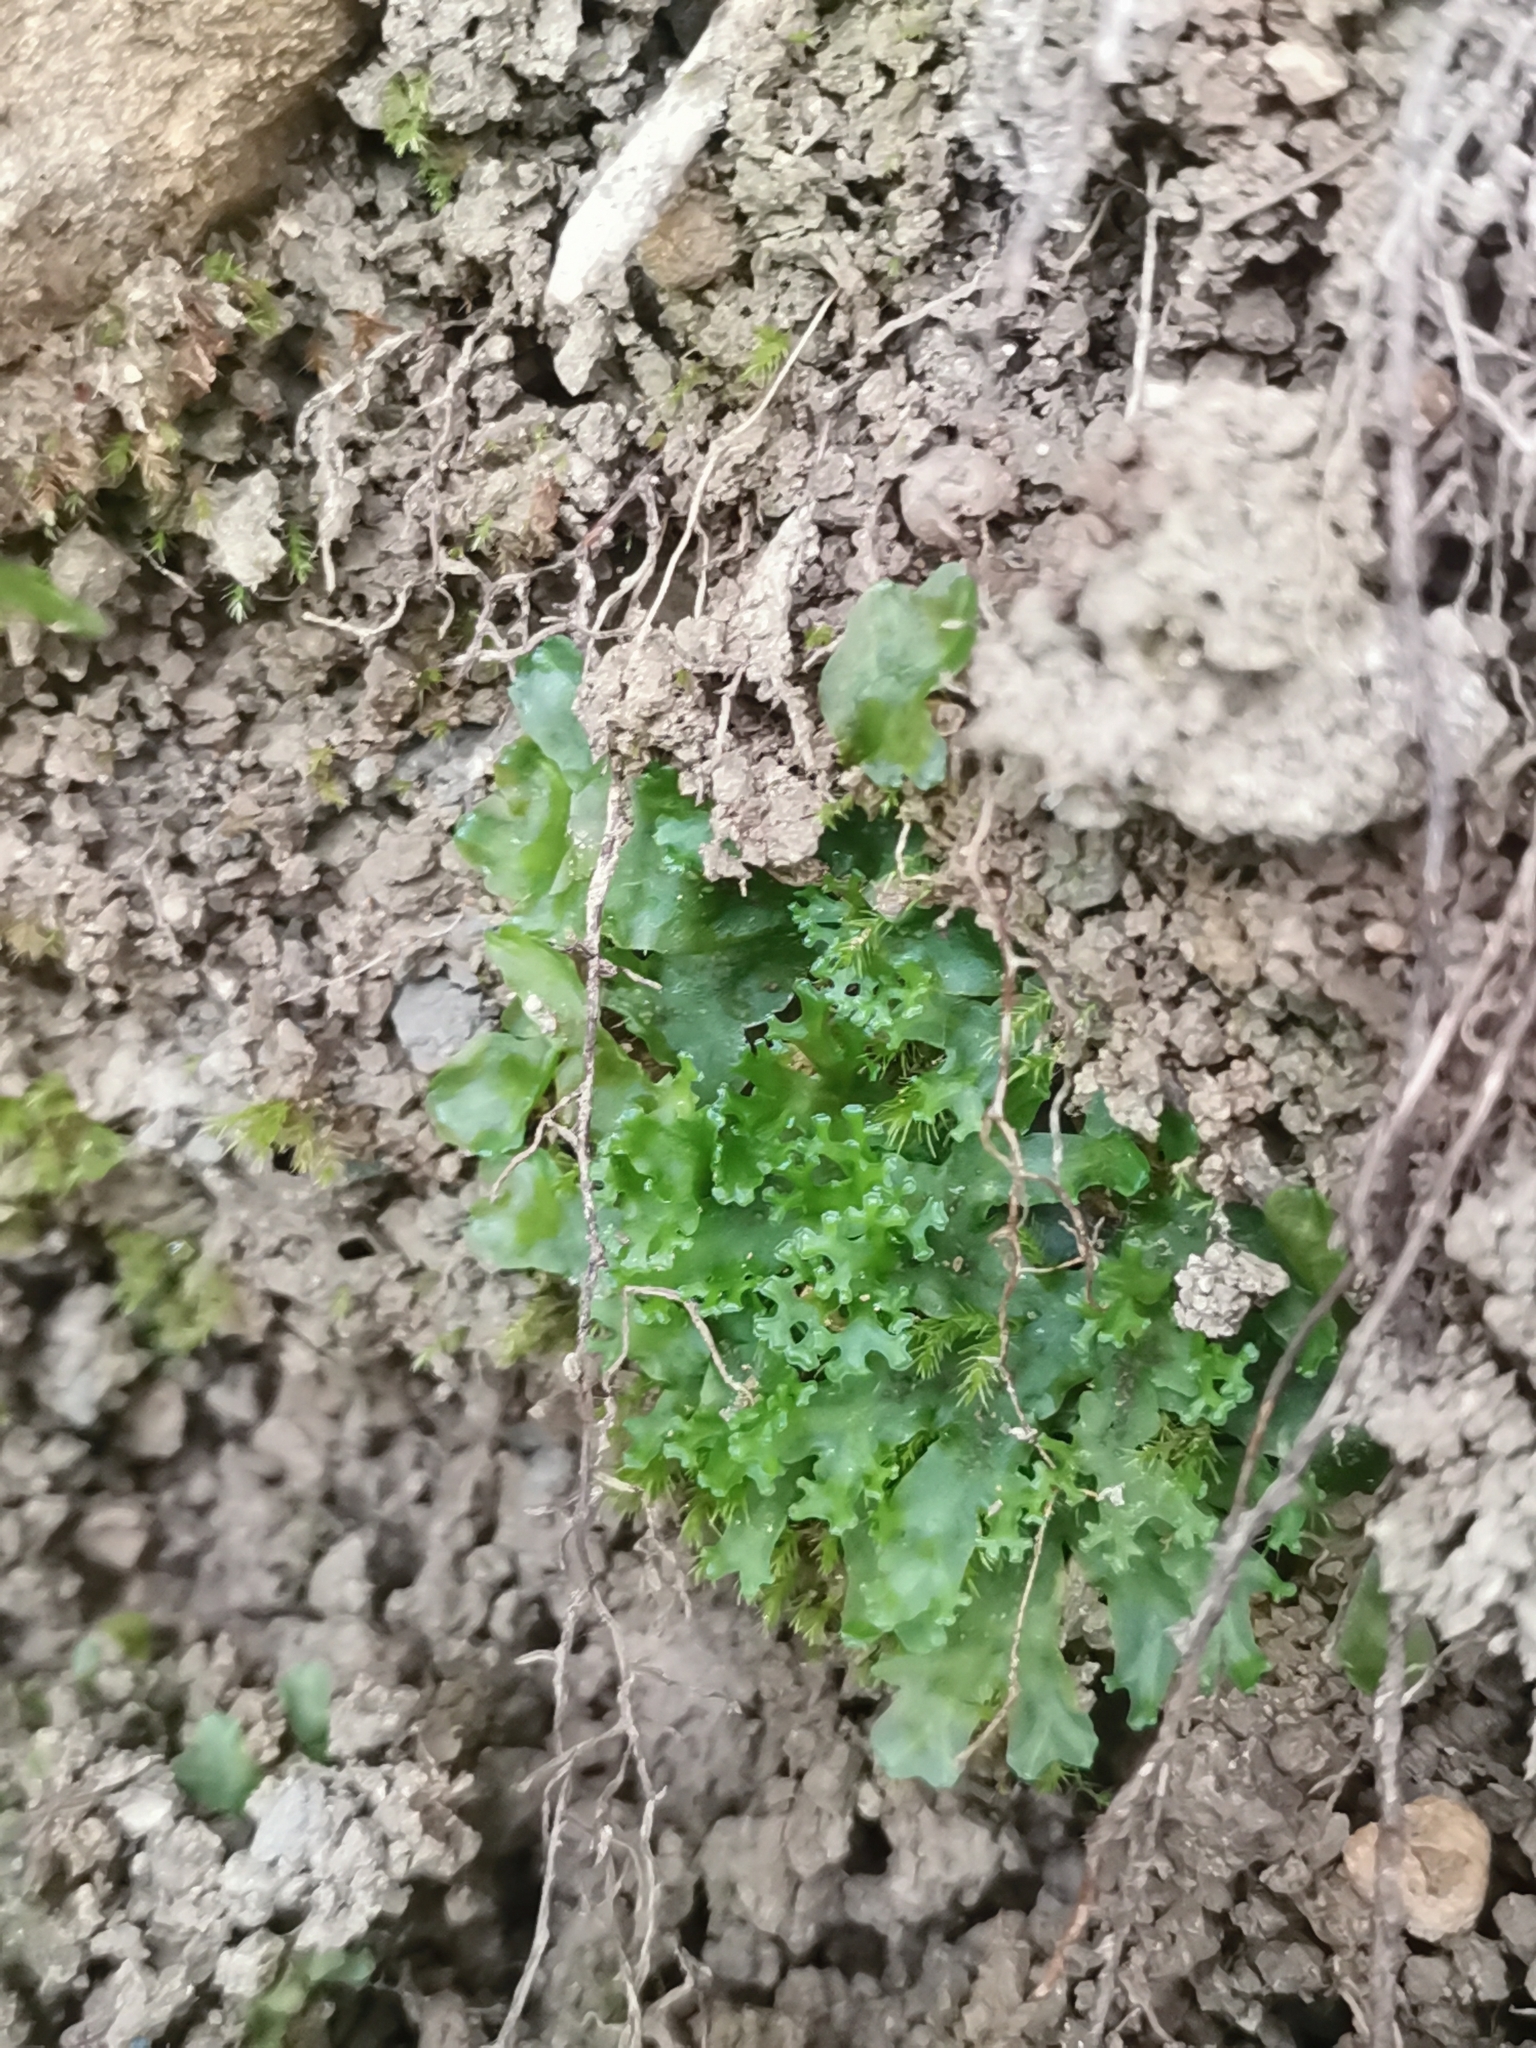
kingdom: Plantae
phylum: Marchantiophyta
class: Jungermanniopsida
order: Pelliales
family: Pelliaceae
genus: Apopellia
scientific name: Apopellia endiviifolia
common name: Endive pellia
